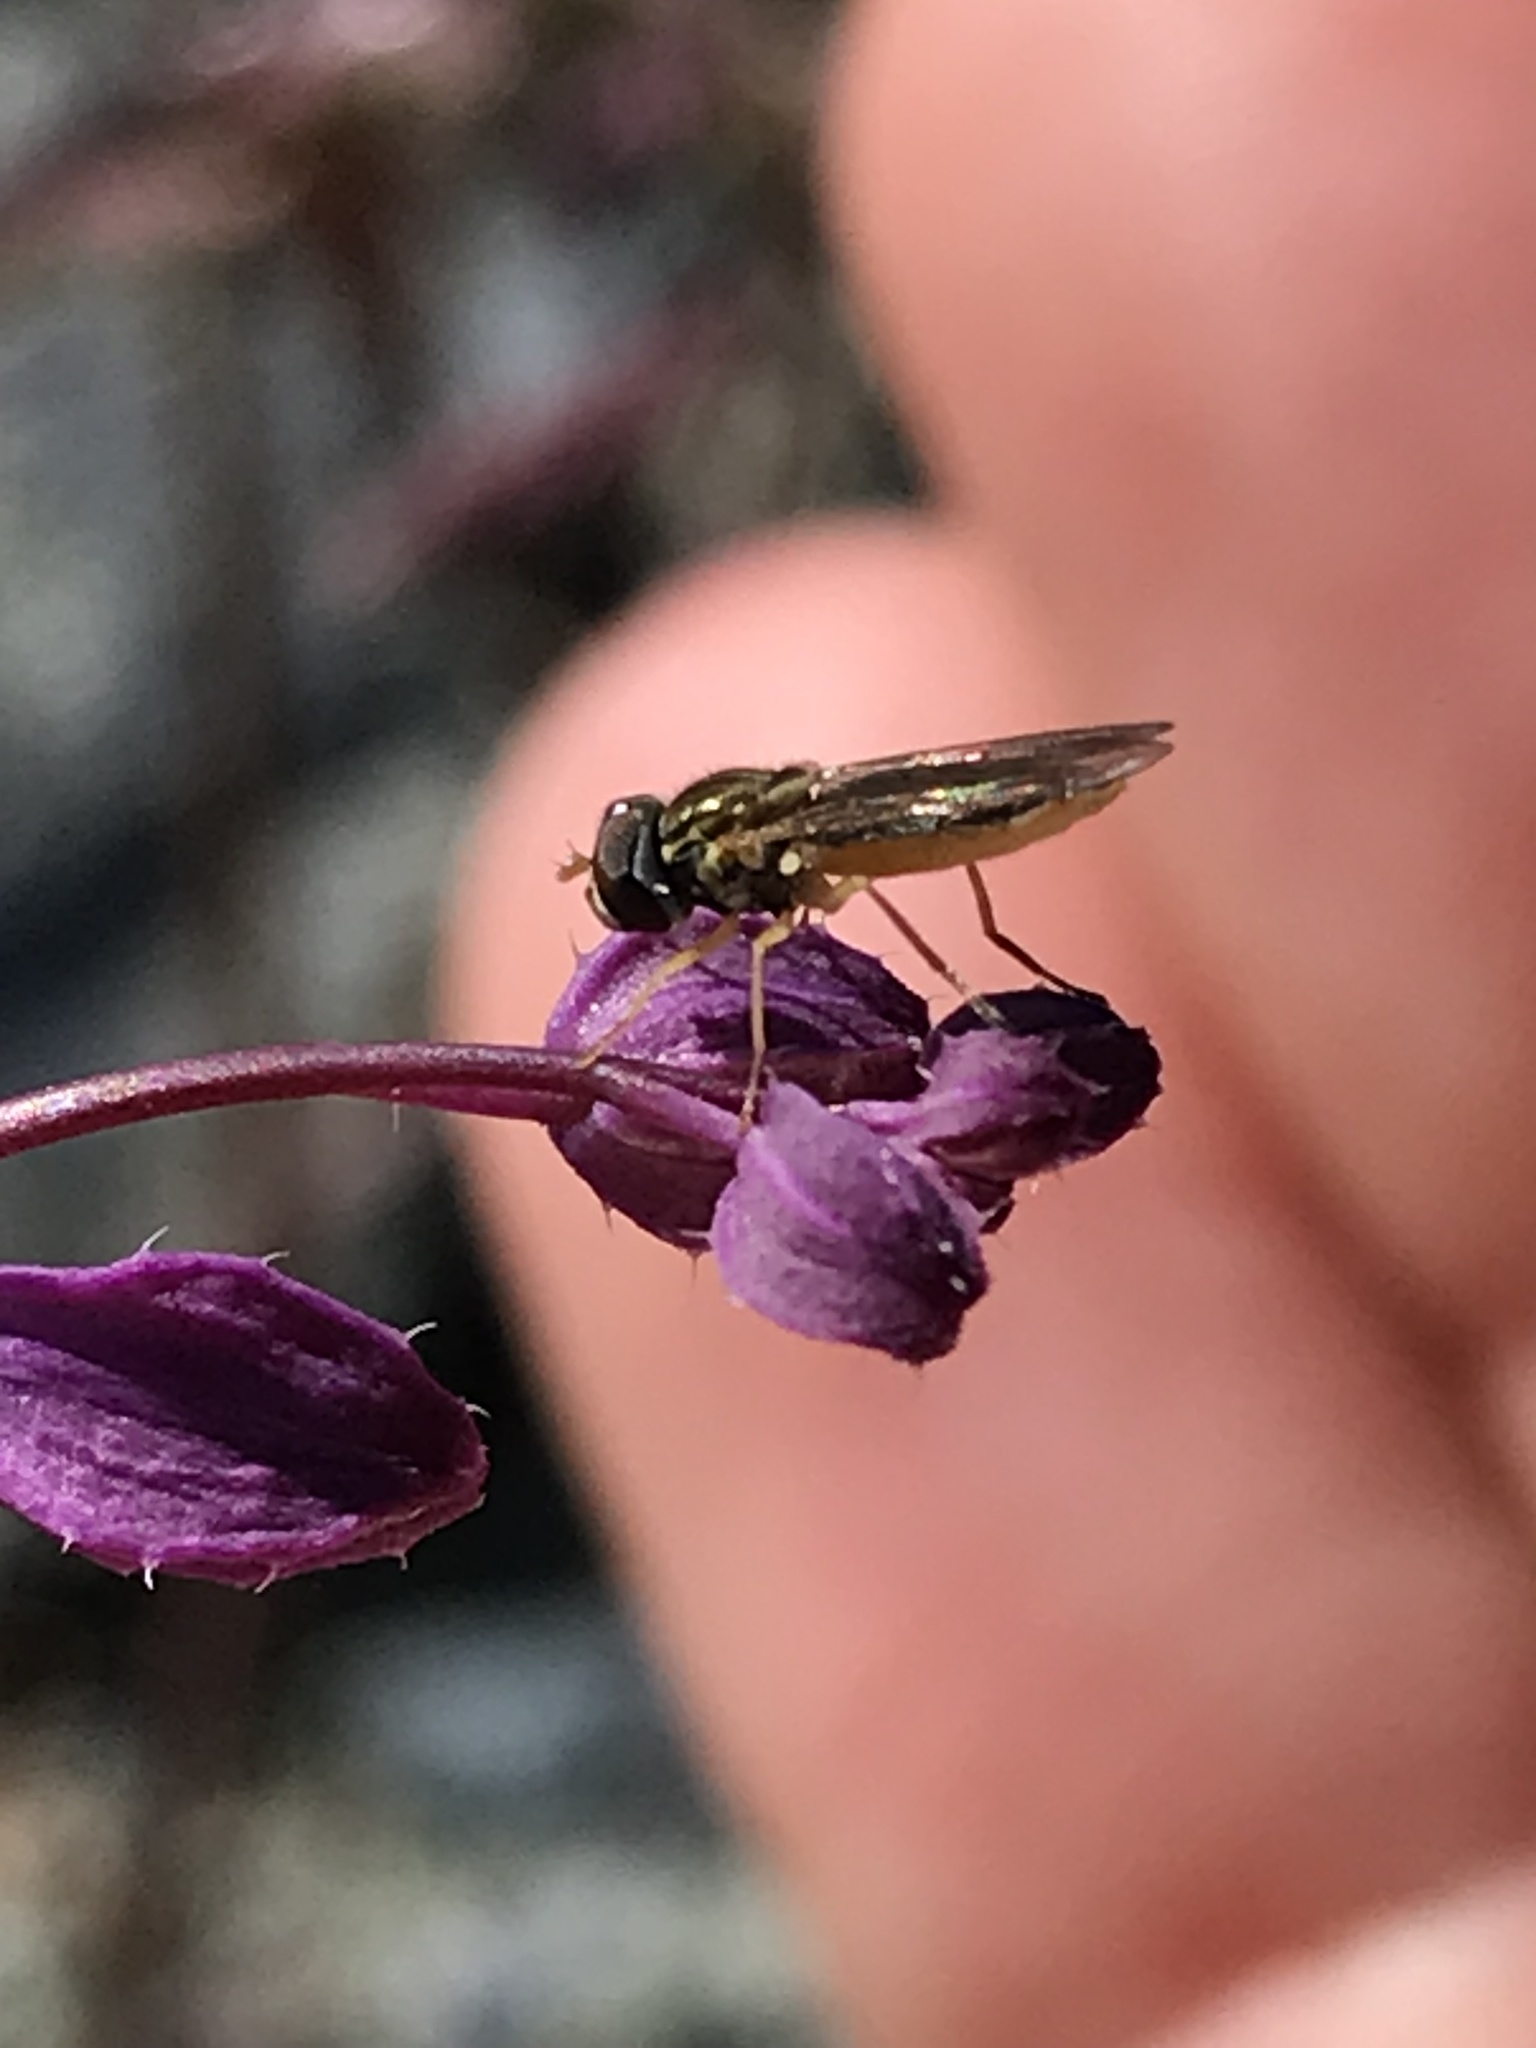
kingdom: Animalia
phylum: Arthropoda
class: Insecta
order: Diptera
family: Syrphidae
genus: Toxomerus
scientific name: Toxomerus marginatus
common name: Syrphid fly
